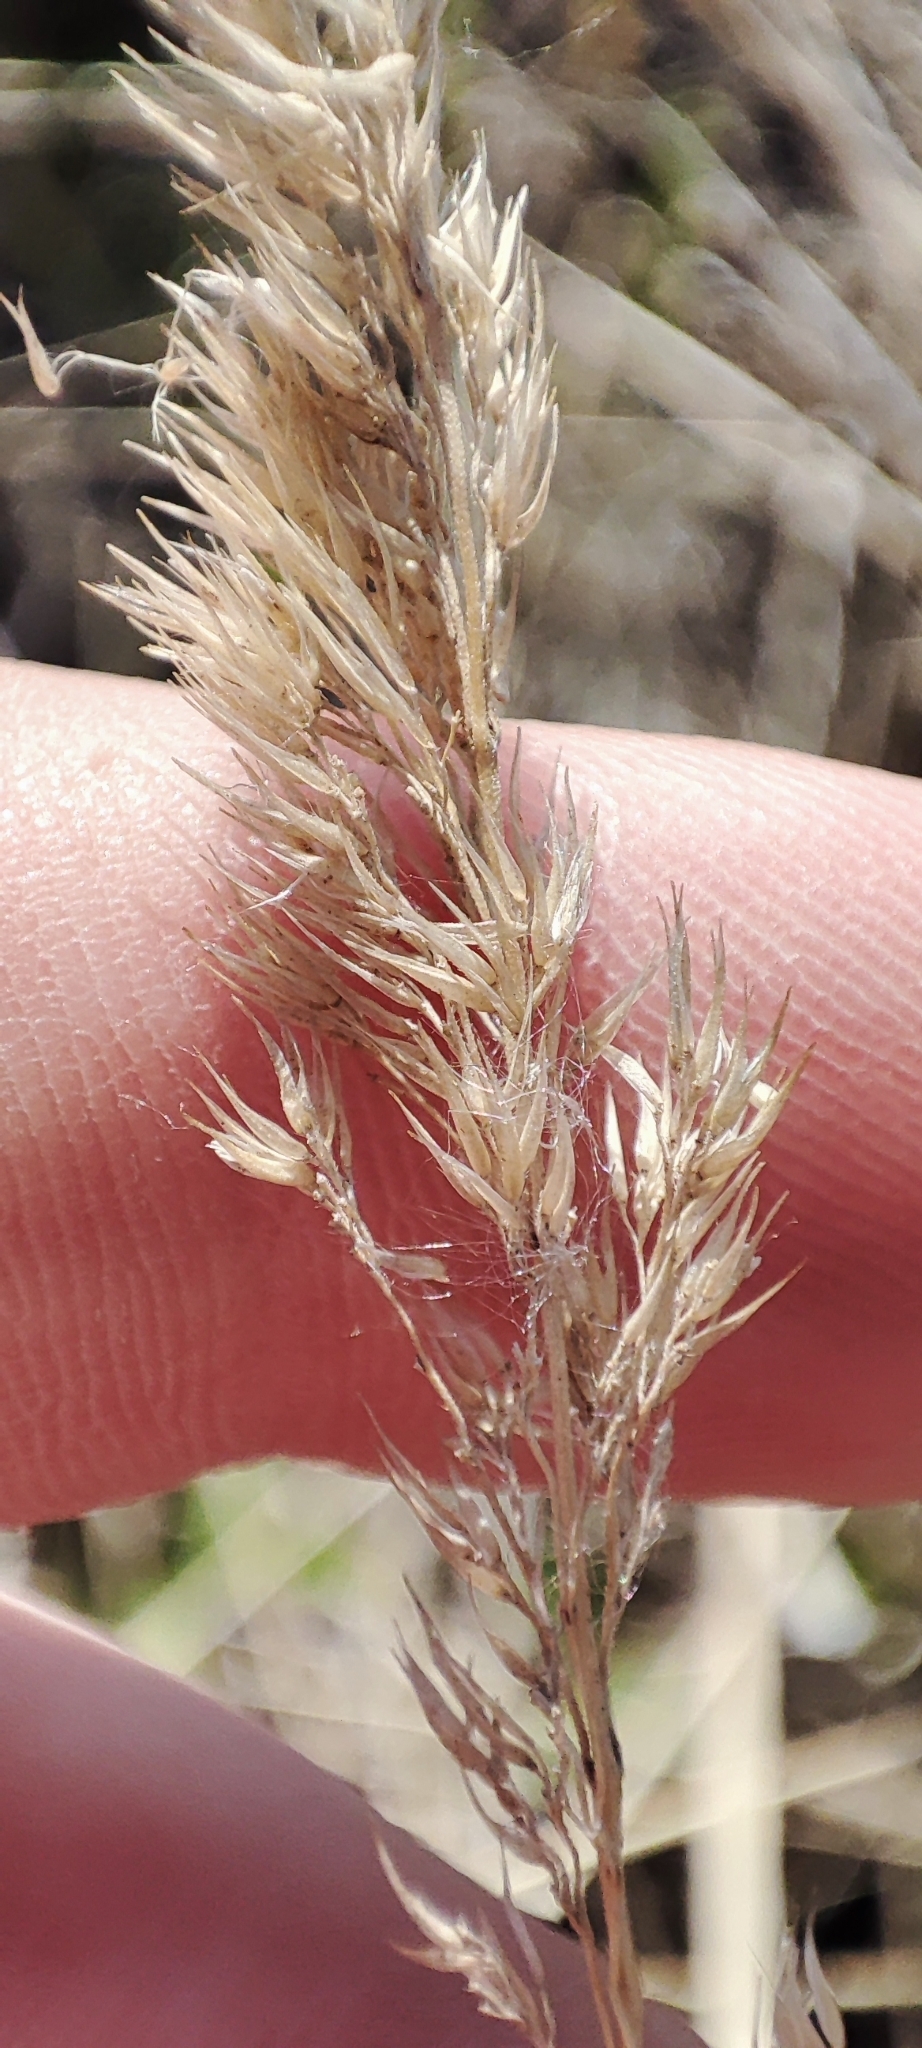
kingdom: Plantae
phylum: Tracheophyta
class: Liliopsida
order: Poales
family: Poaceae
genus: Calamagrostis
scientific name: Calamagrostis epigejos
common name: Wood small-reed
